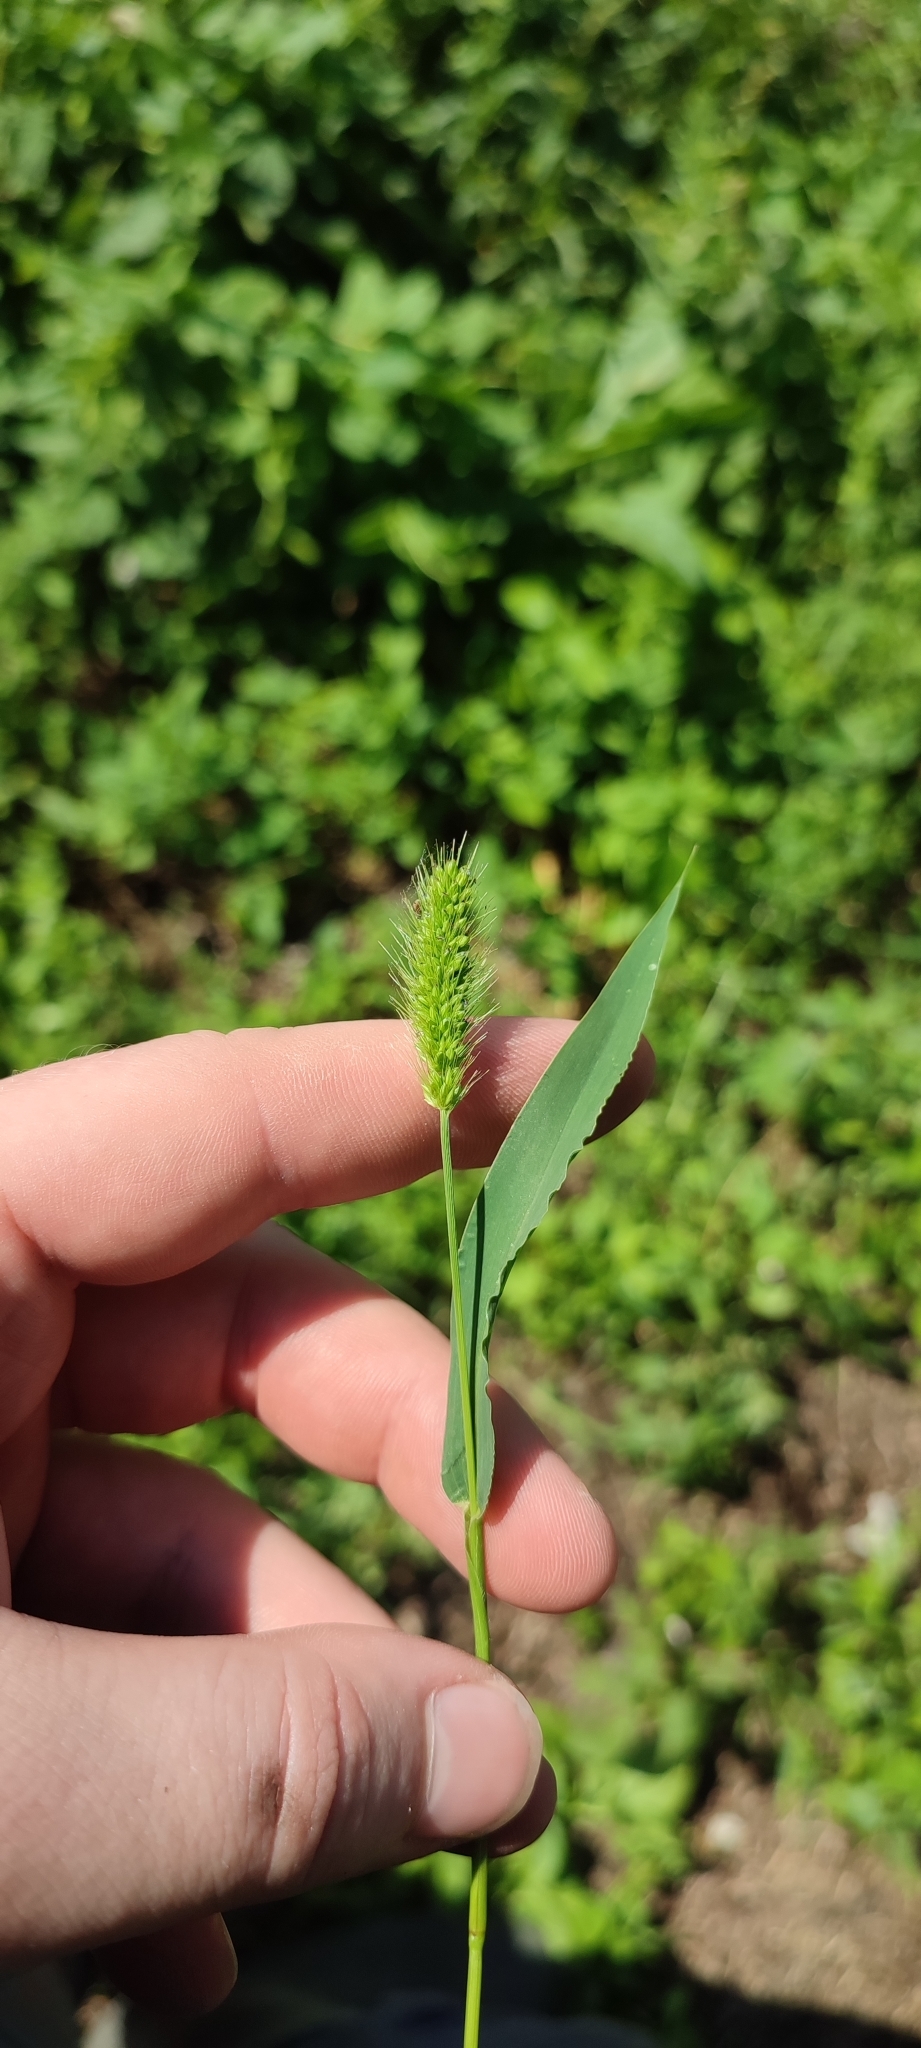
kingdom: Plantae
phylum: Tracheophyta
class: Liliopsida
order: Poales
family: Poaceae
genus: Setaria
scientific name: Setaria viridis
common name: Green bristlegrass
